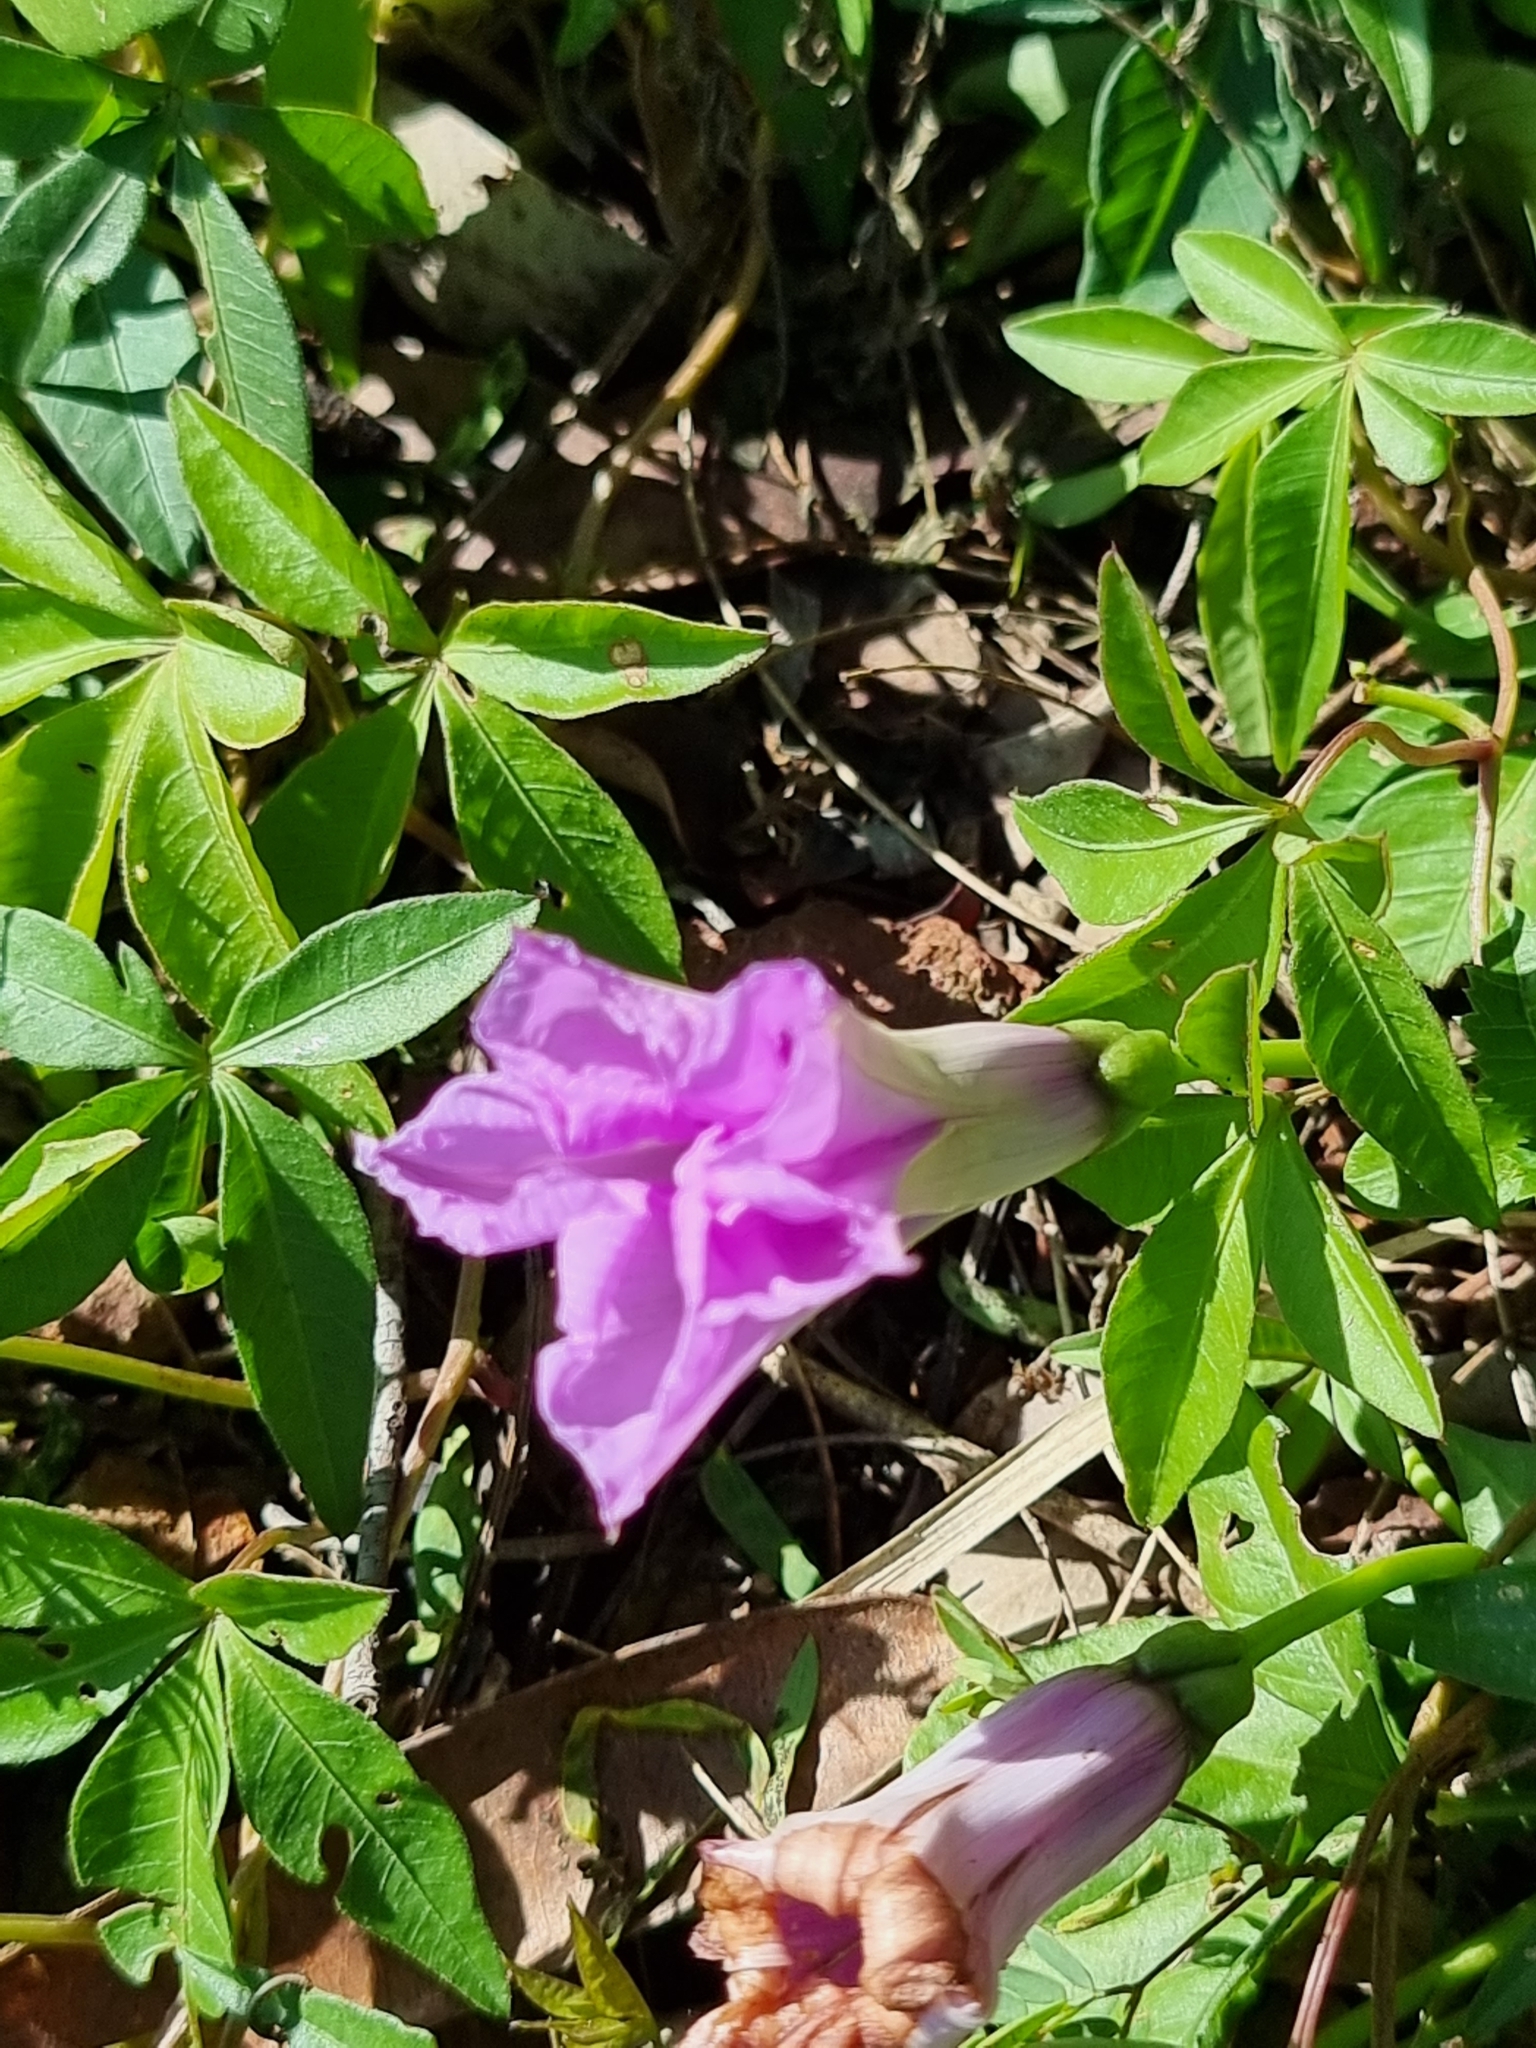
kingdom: Plantae
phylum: Tracheophyta
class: Magnoliopsida
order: Solanales
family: Convolvulaceae
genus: Ipomoea
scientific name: Ipomoea cairica
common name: Mile a minute vine
